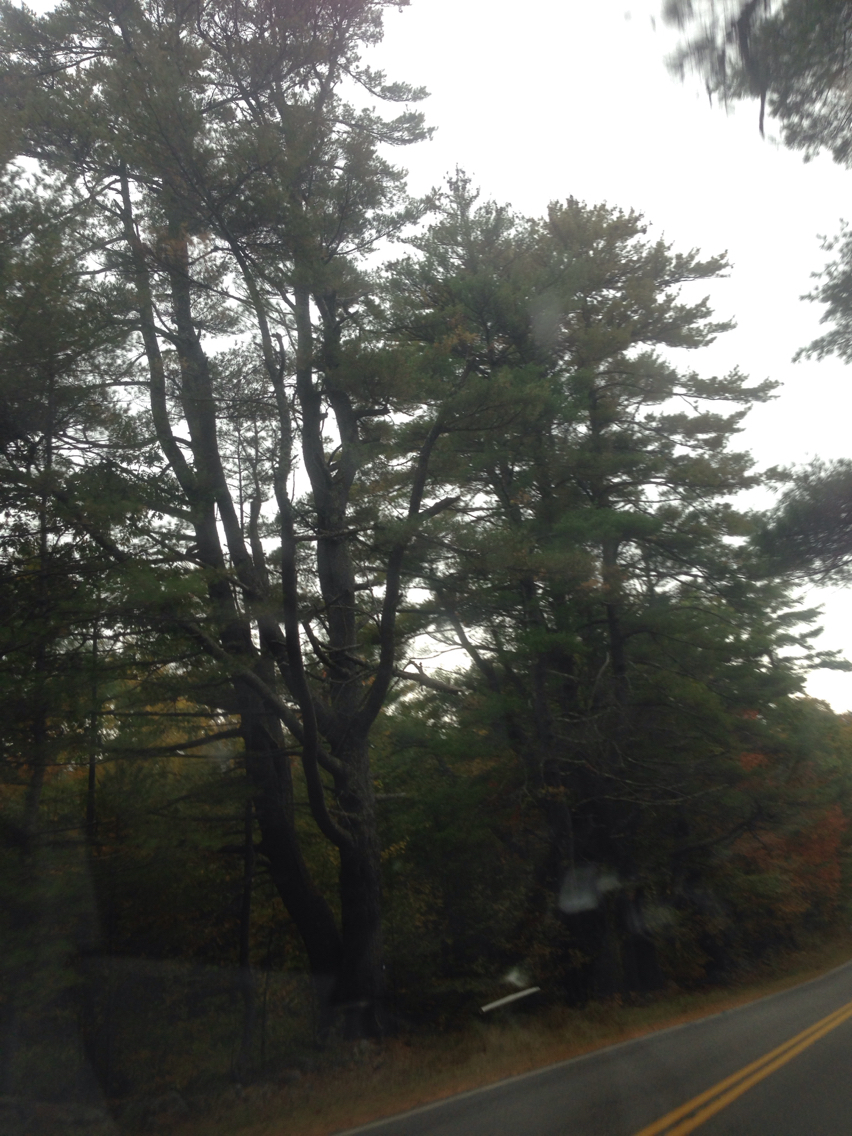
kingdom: Plantae
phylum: Tracheophyta
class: Pinopsida
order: Pinales
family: Pinaceae
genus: Pinus
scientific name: Pinus strobus
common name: Weymouth pine
